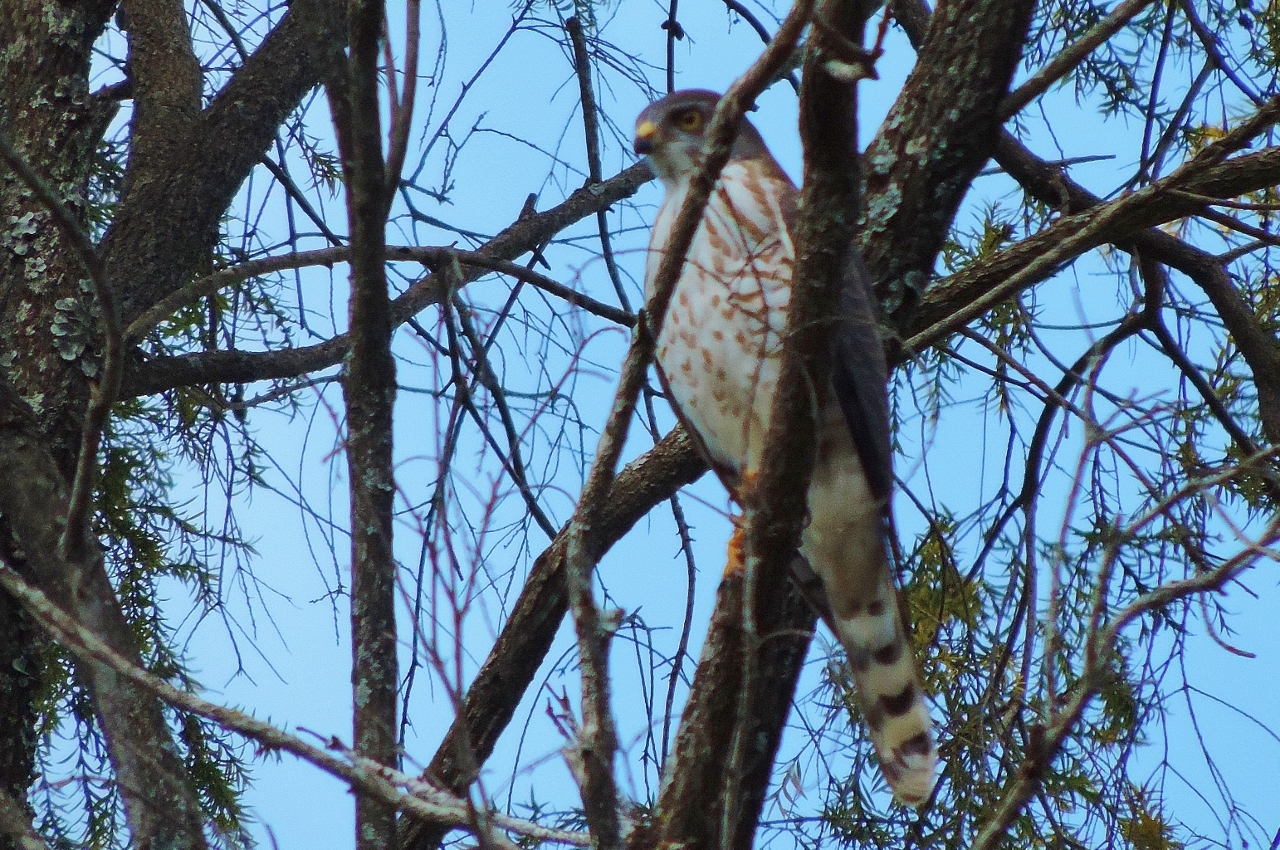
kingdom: Animalia
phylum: Chordata
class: Aves
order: Accipitriformes
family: Accipitridae
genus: Accipiter
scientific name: Accipiter badius
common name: Shikra
